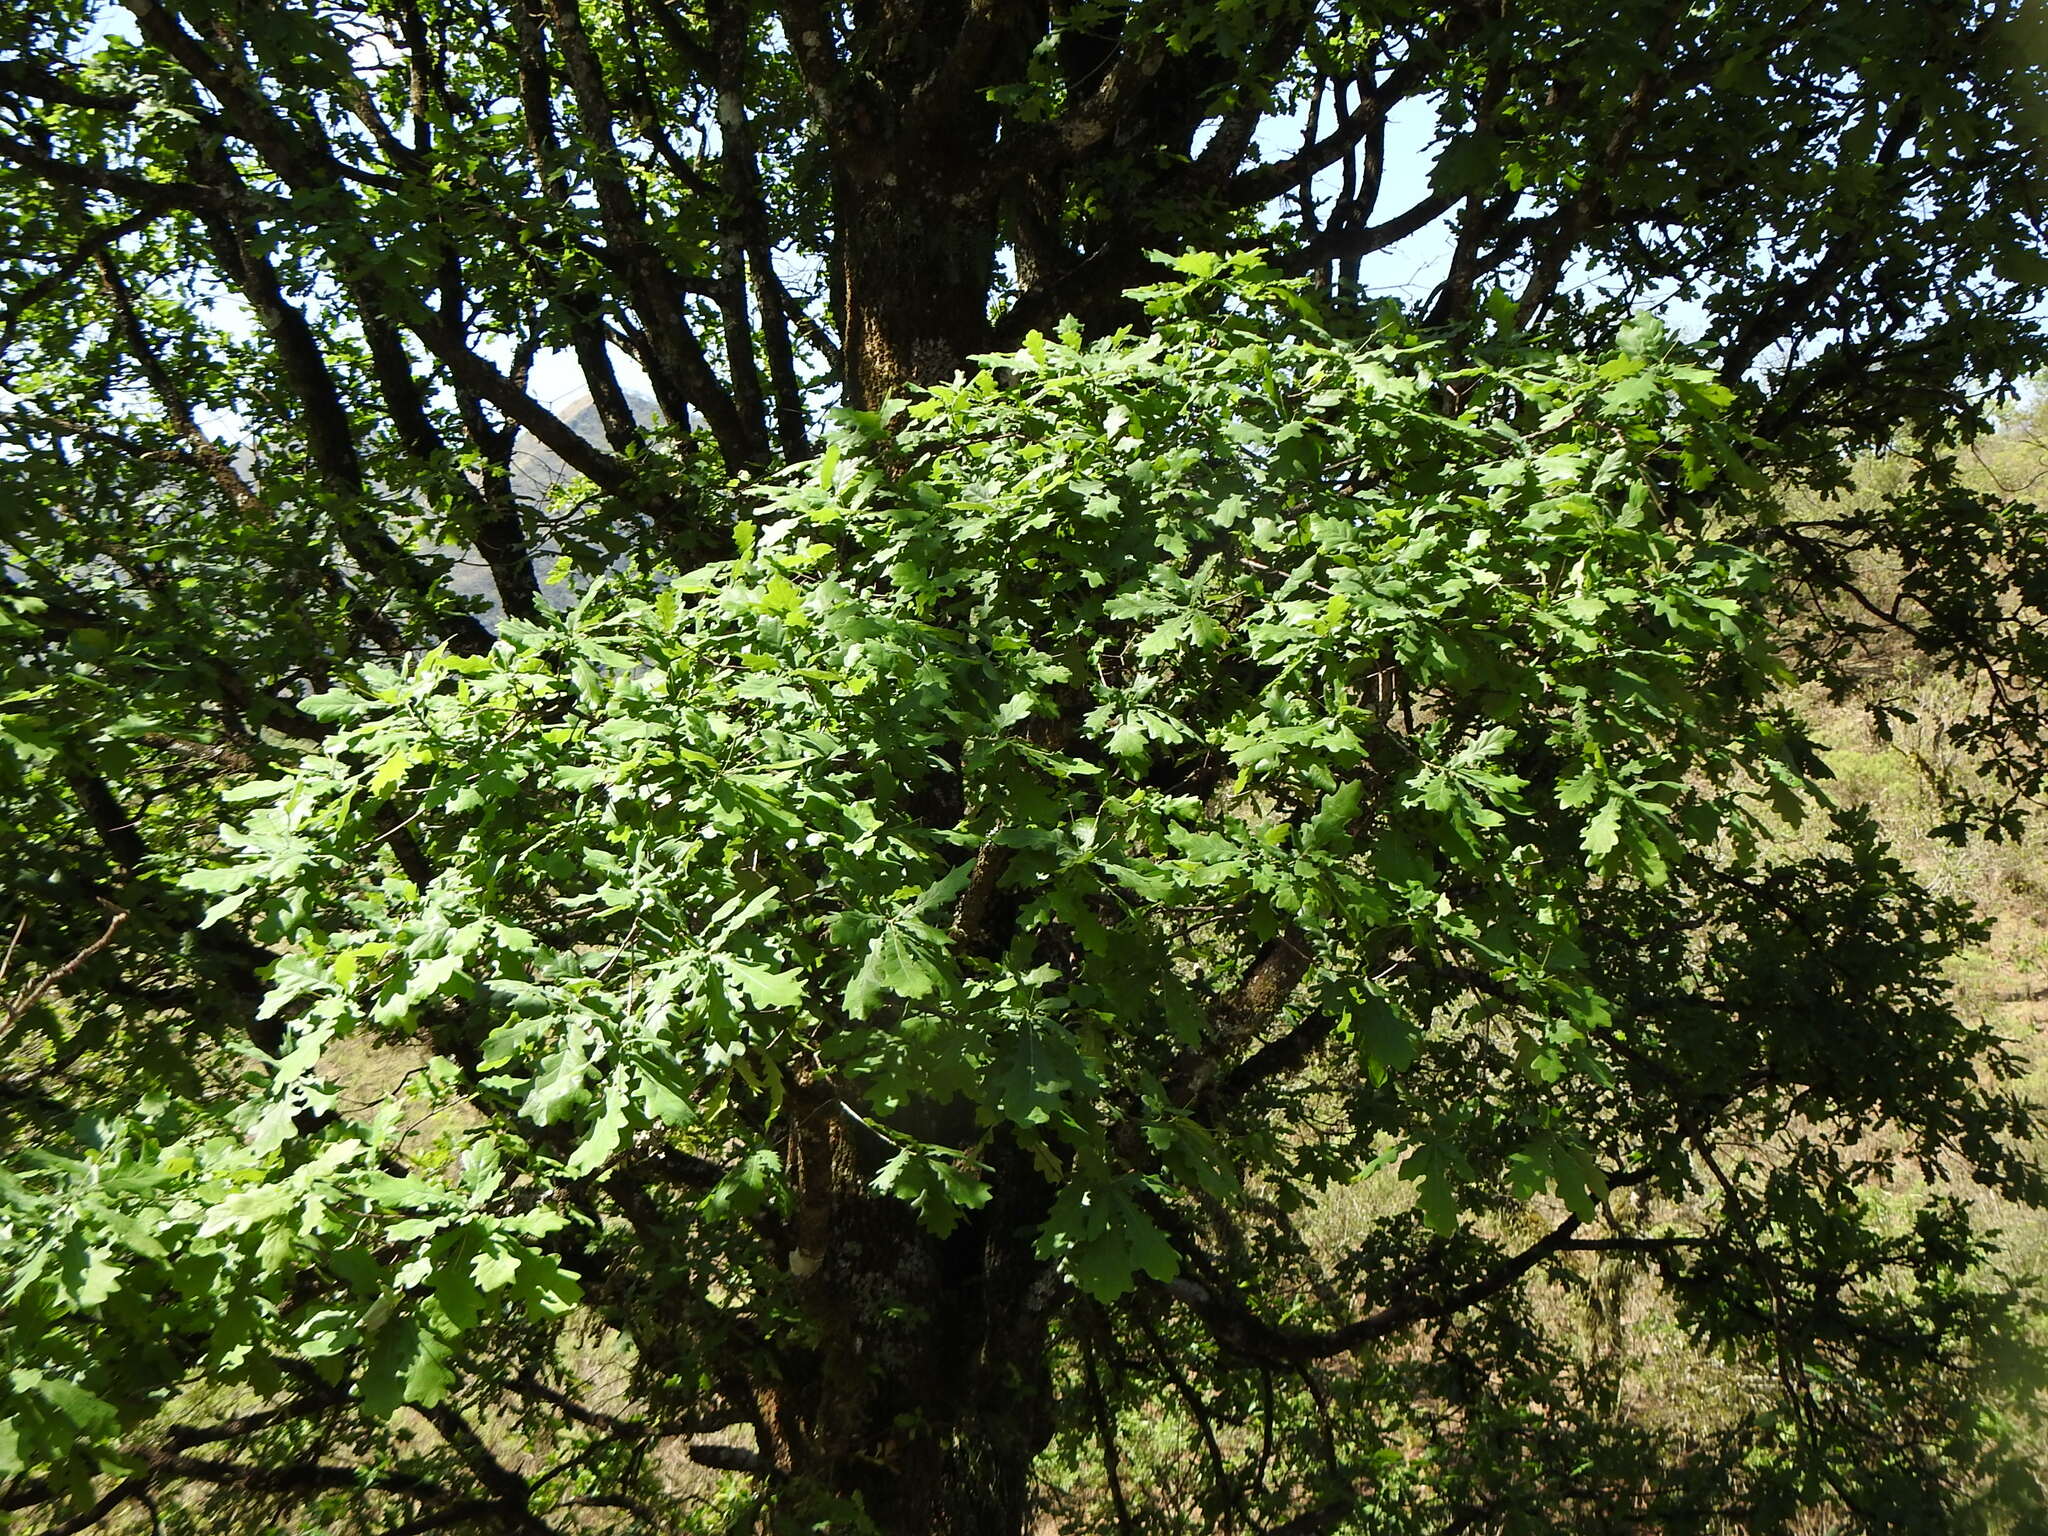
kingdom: Plantae
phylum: Tracheophyta
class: Magnoliopsida
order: Fagales
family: Fagaceae
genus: Quercus
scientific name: Quercus robur
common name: Pedunculate oak
